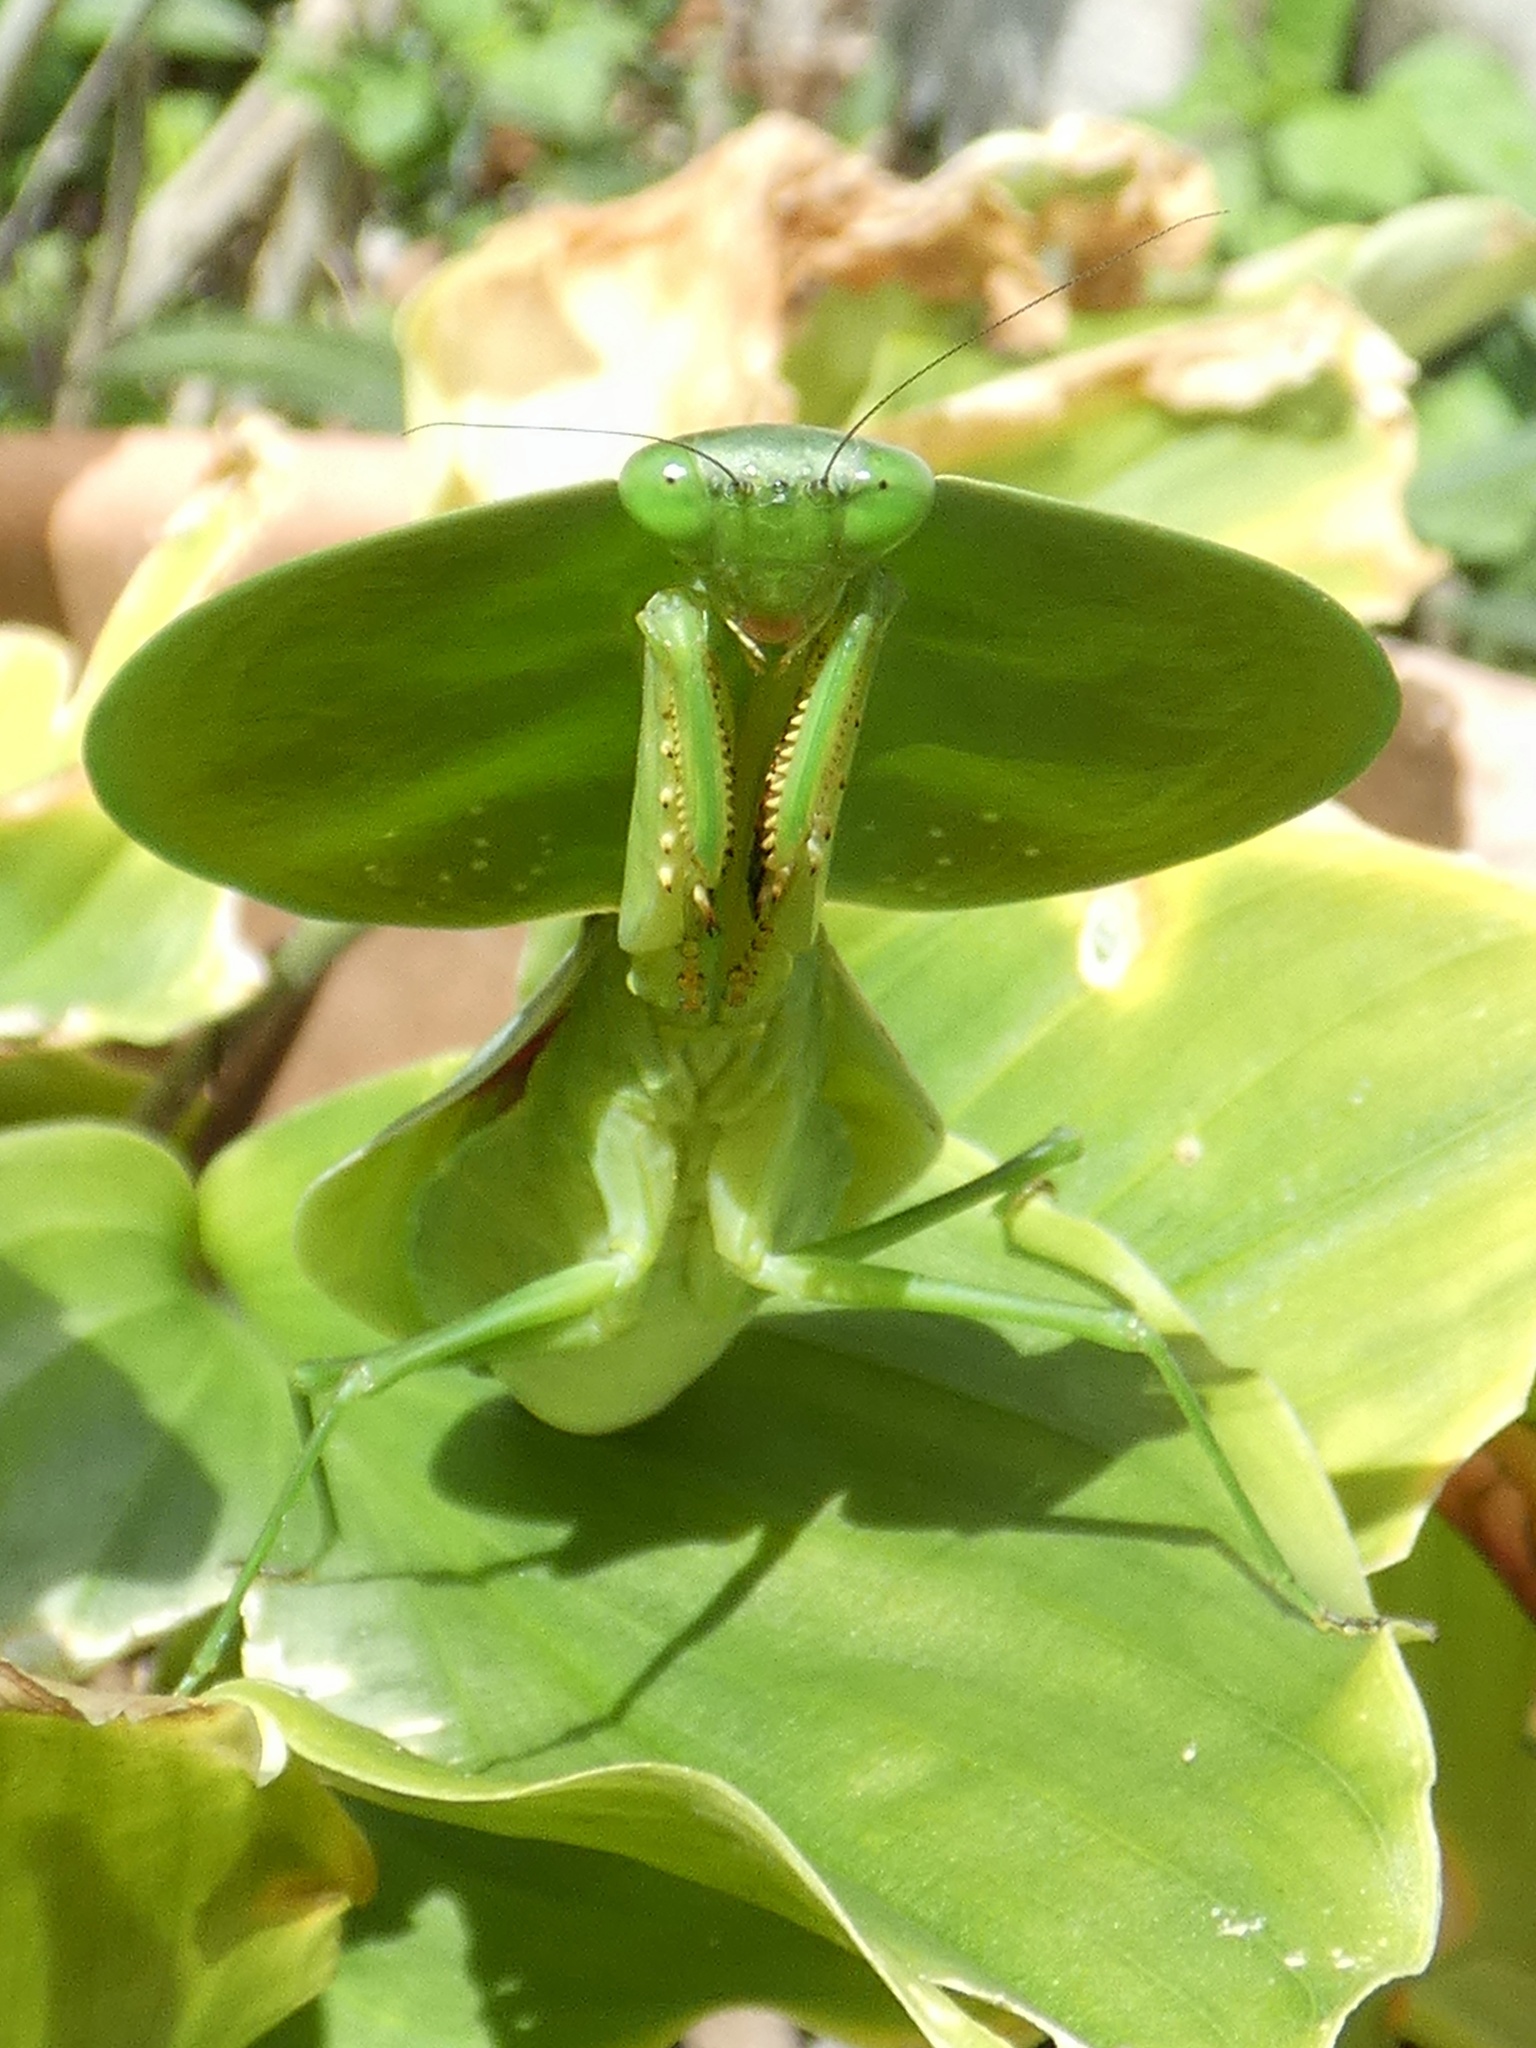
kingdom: Animalia
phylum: Arthropoda
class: Insecta
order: Mantodea
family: Mantidae
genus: Choeradodis
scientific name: Choeradodis rhombicollis
